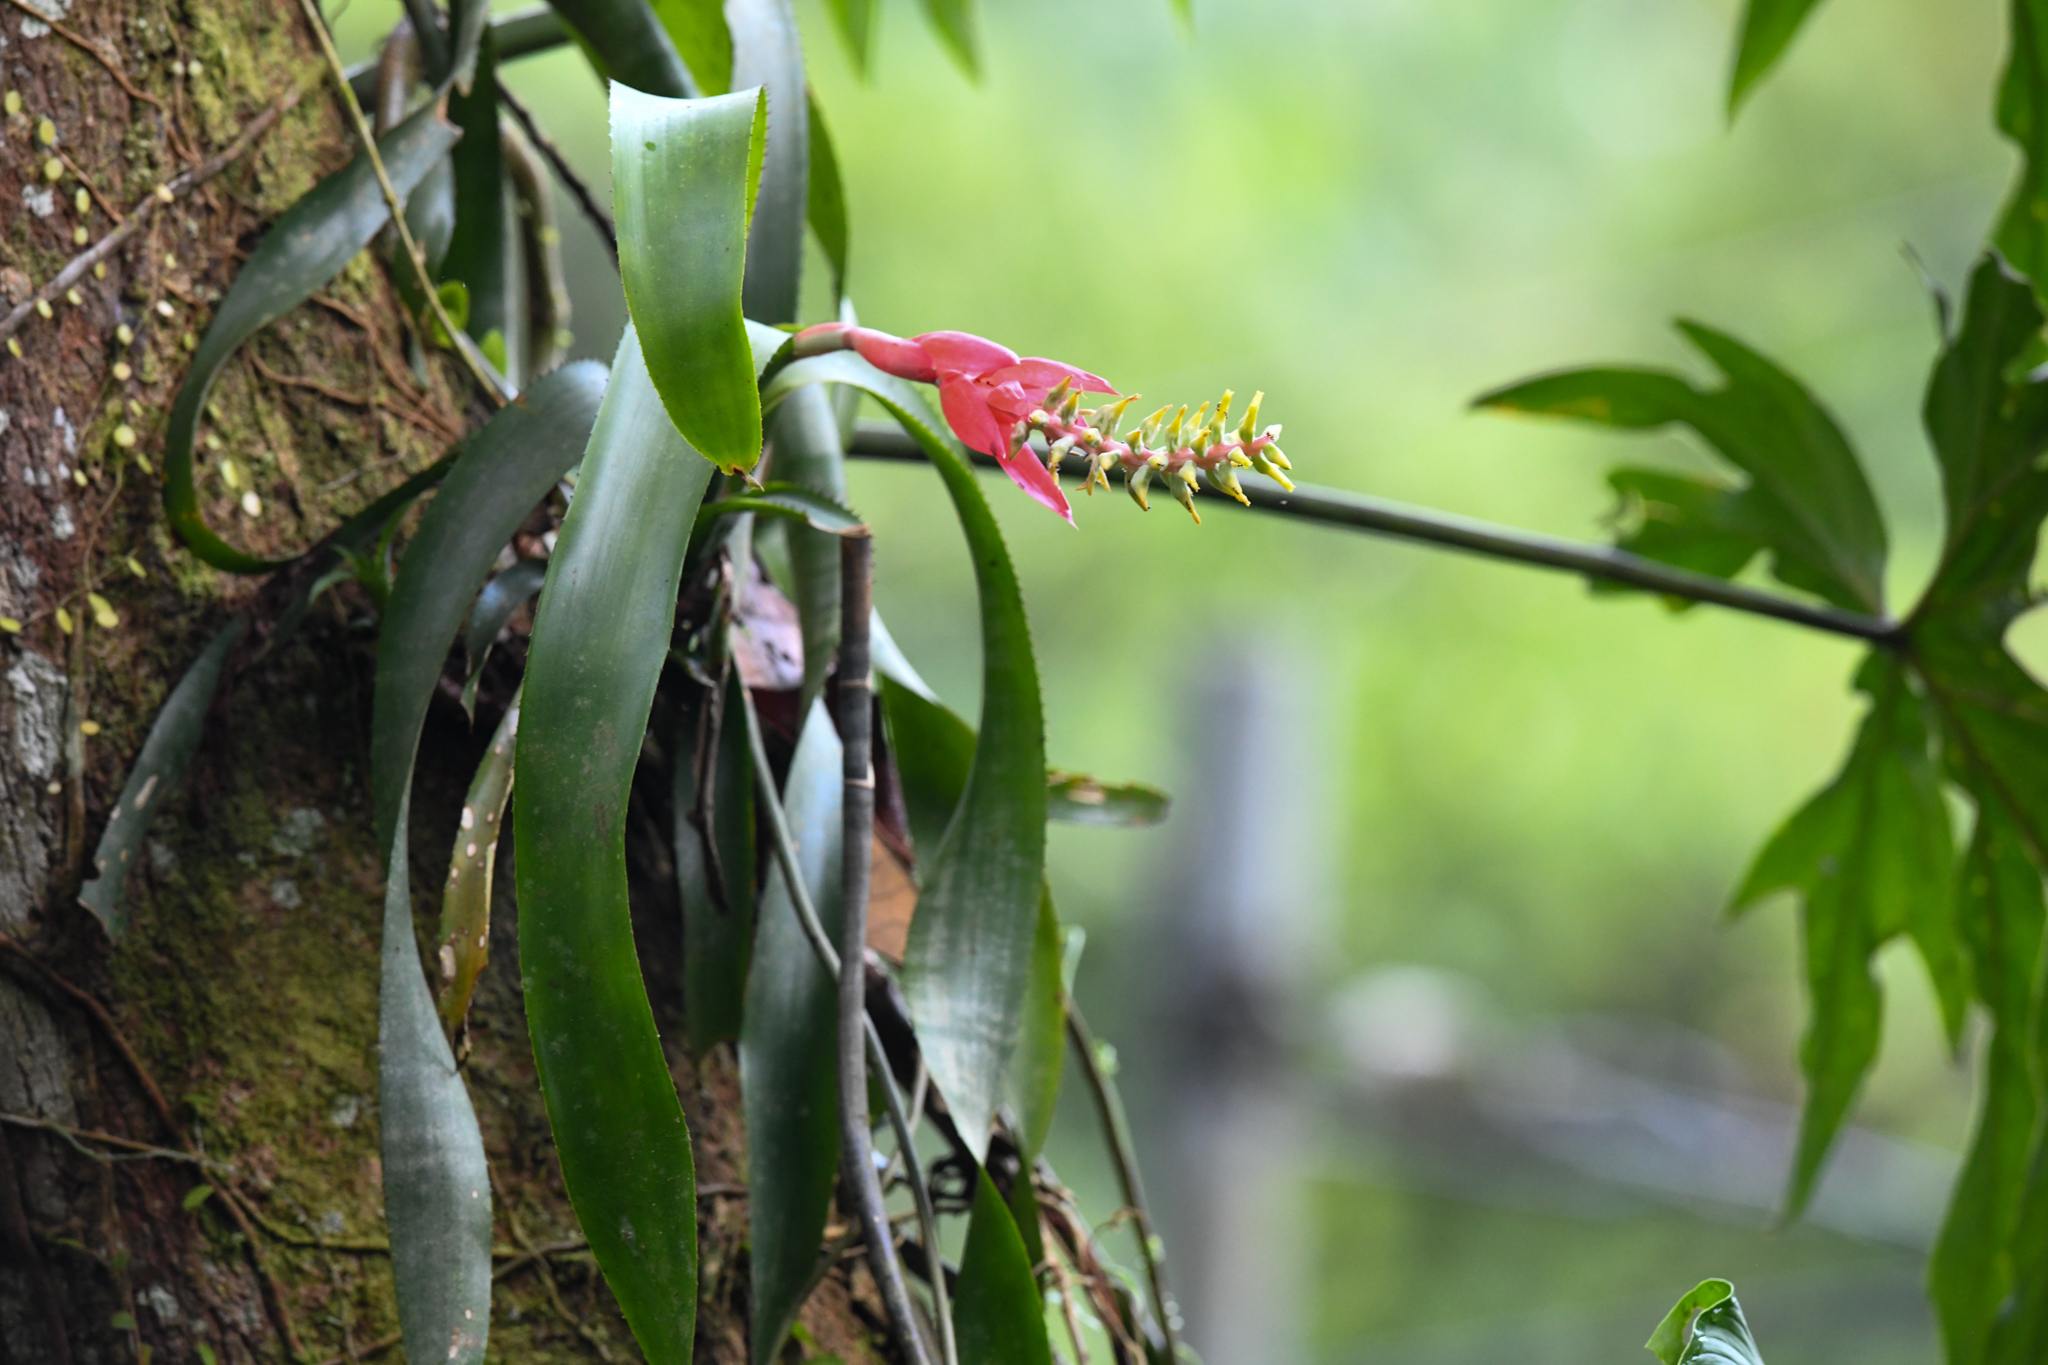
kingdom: Plantae
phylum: Tracheophyta
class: Liliopsida
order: Poales
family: Bromeliaceae
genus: Aechmea
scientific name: Aechmea nudicaulis
